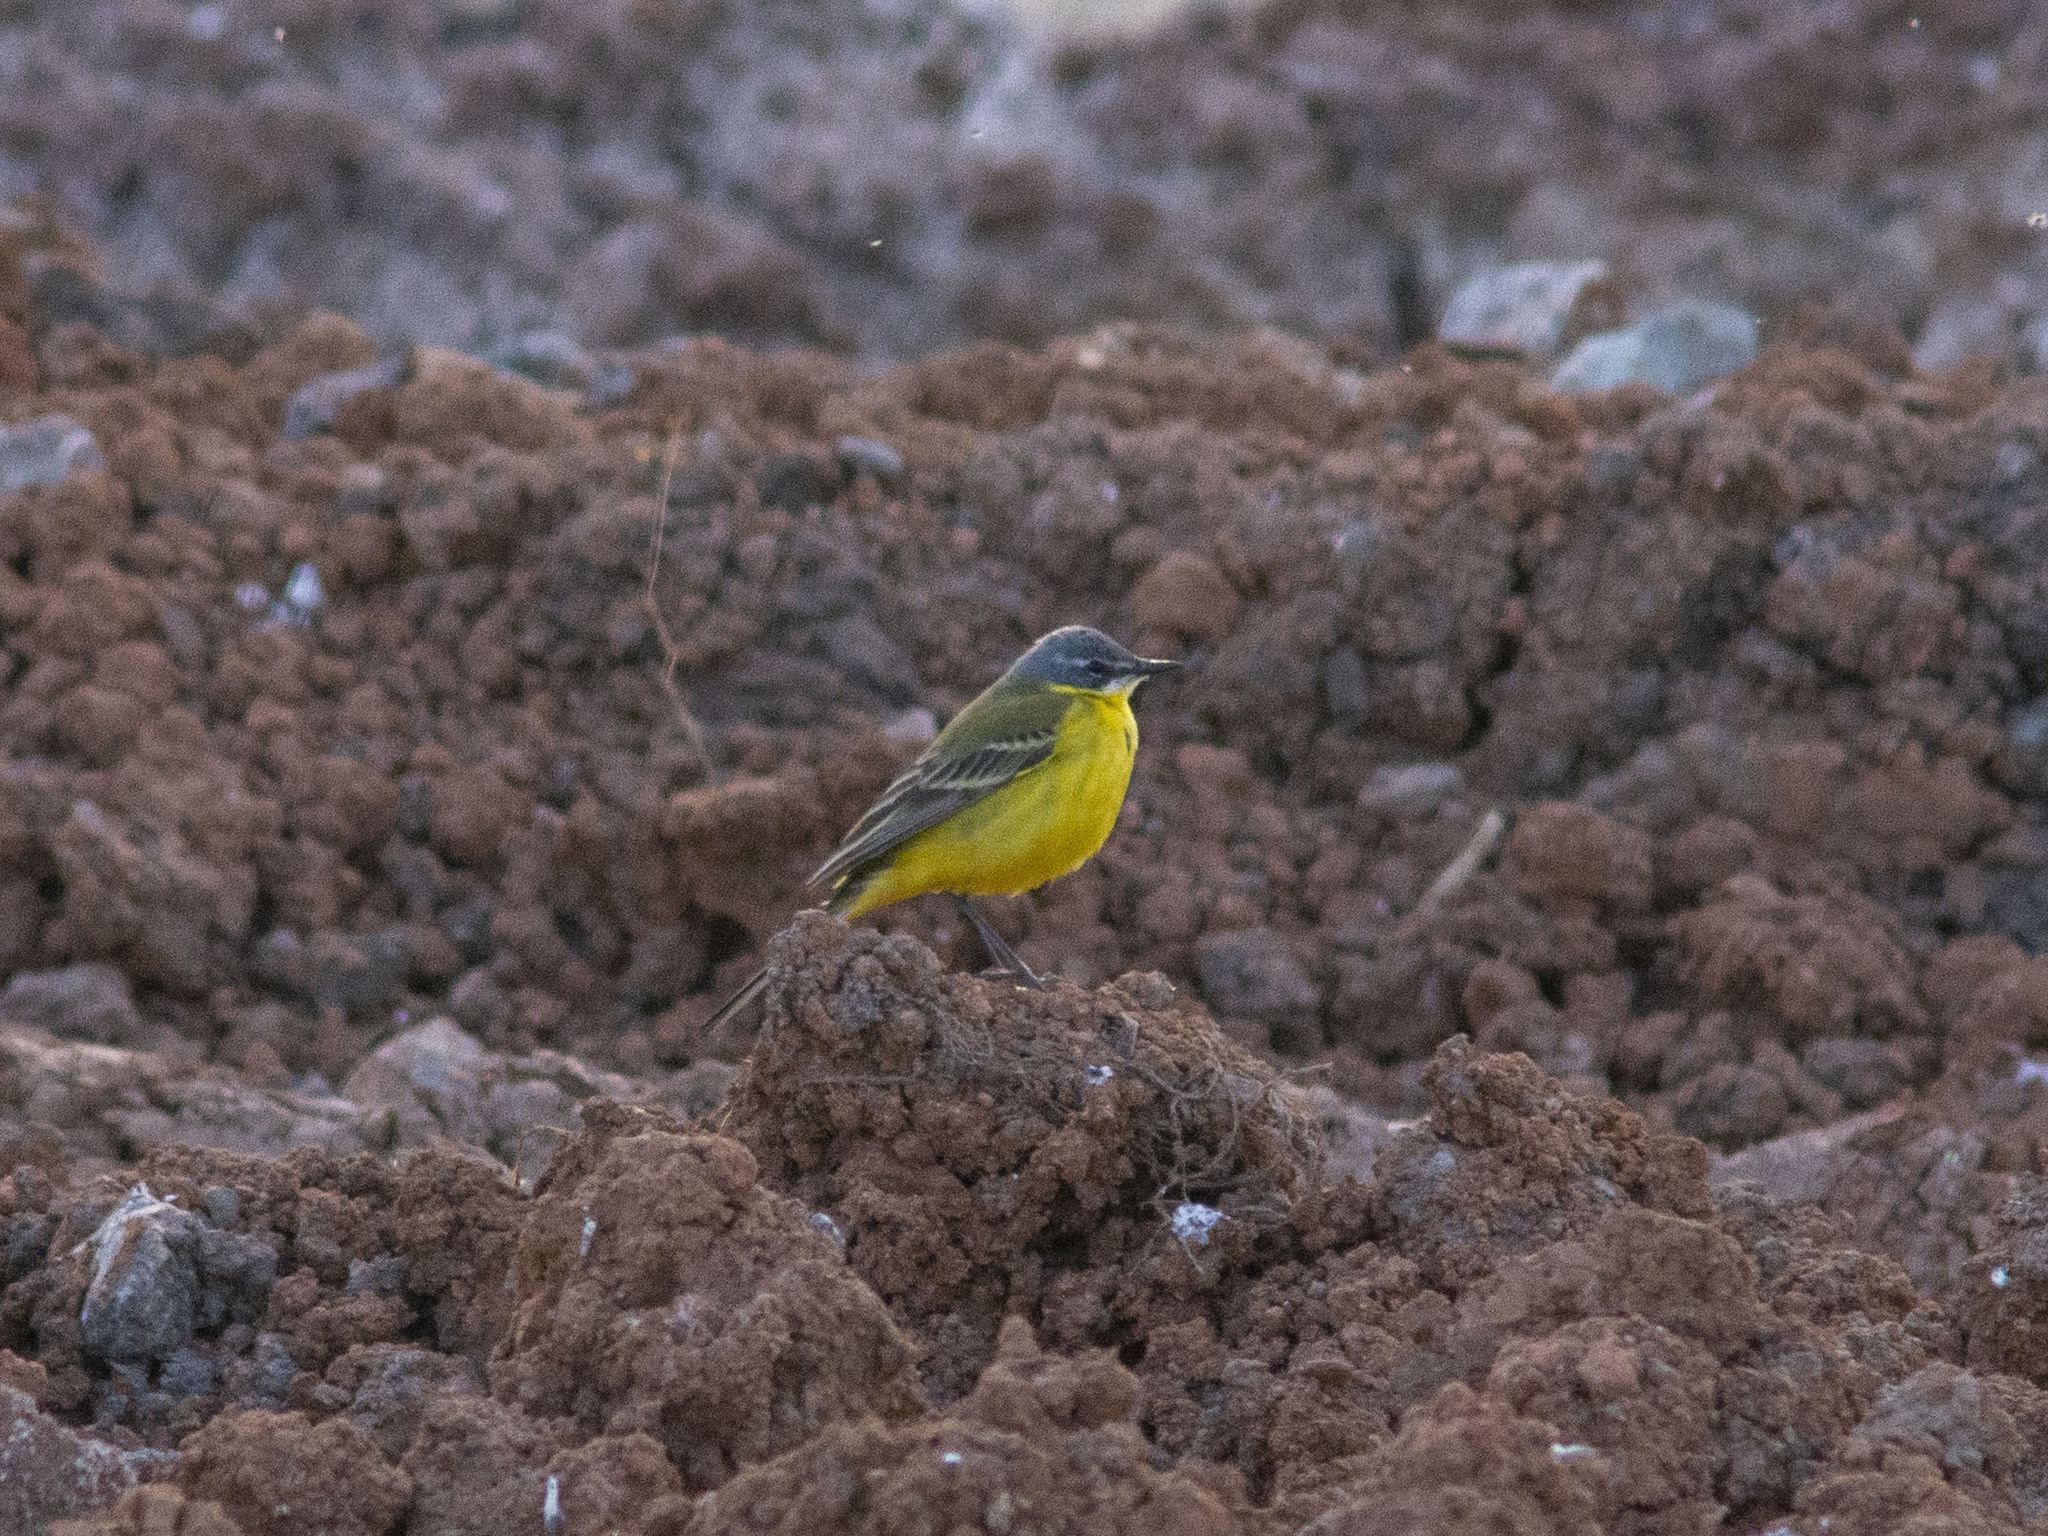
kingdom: Animalia
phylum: Chordata
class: Aves
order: Passeriformes
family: Motacillidae
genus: Motacilla
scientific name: Motacilla flava
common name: Western yellow wagtail
